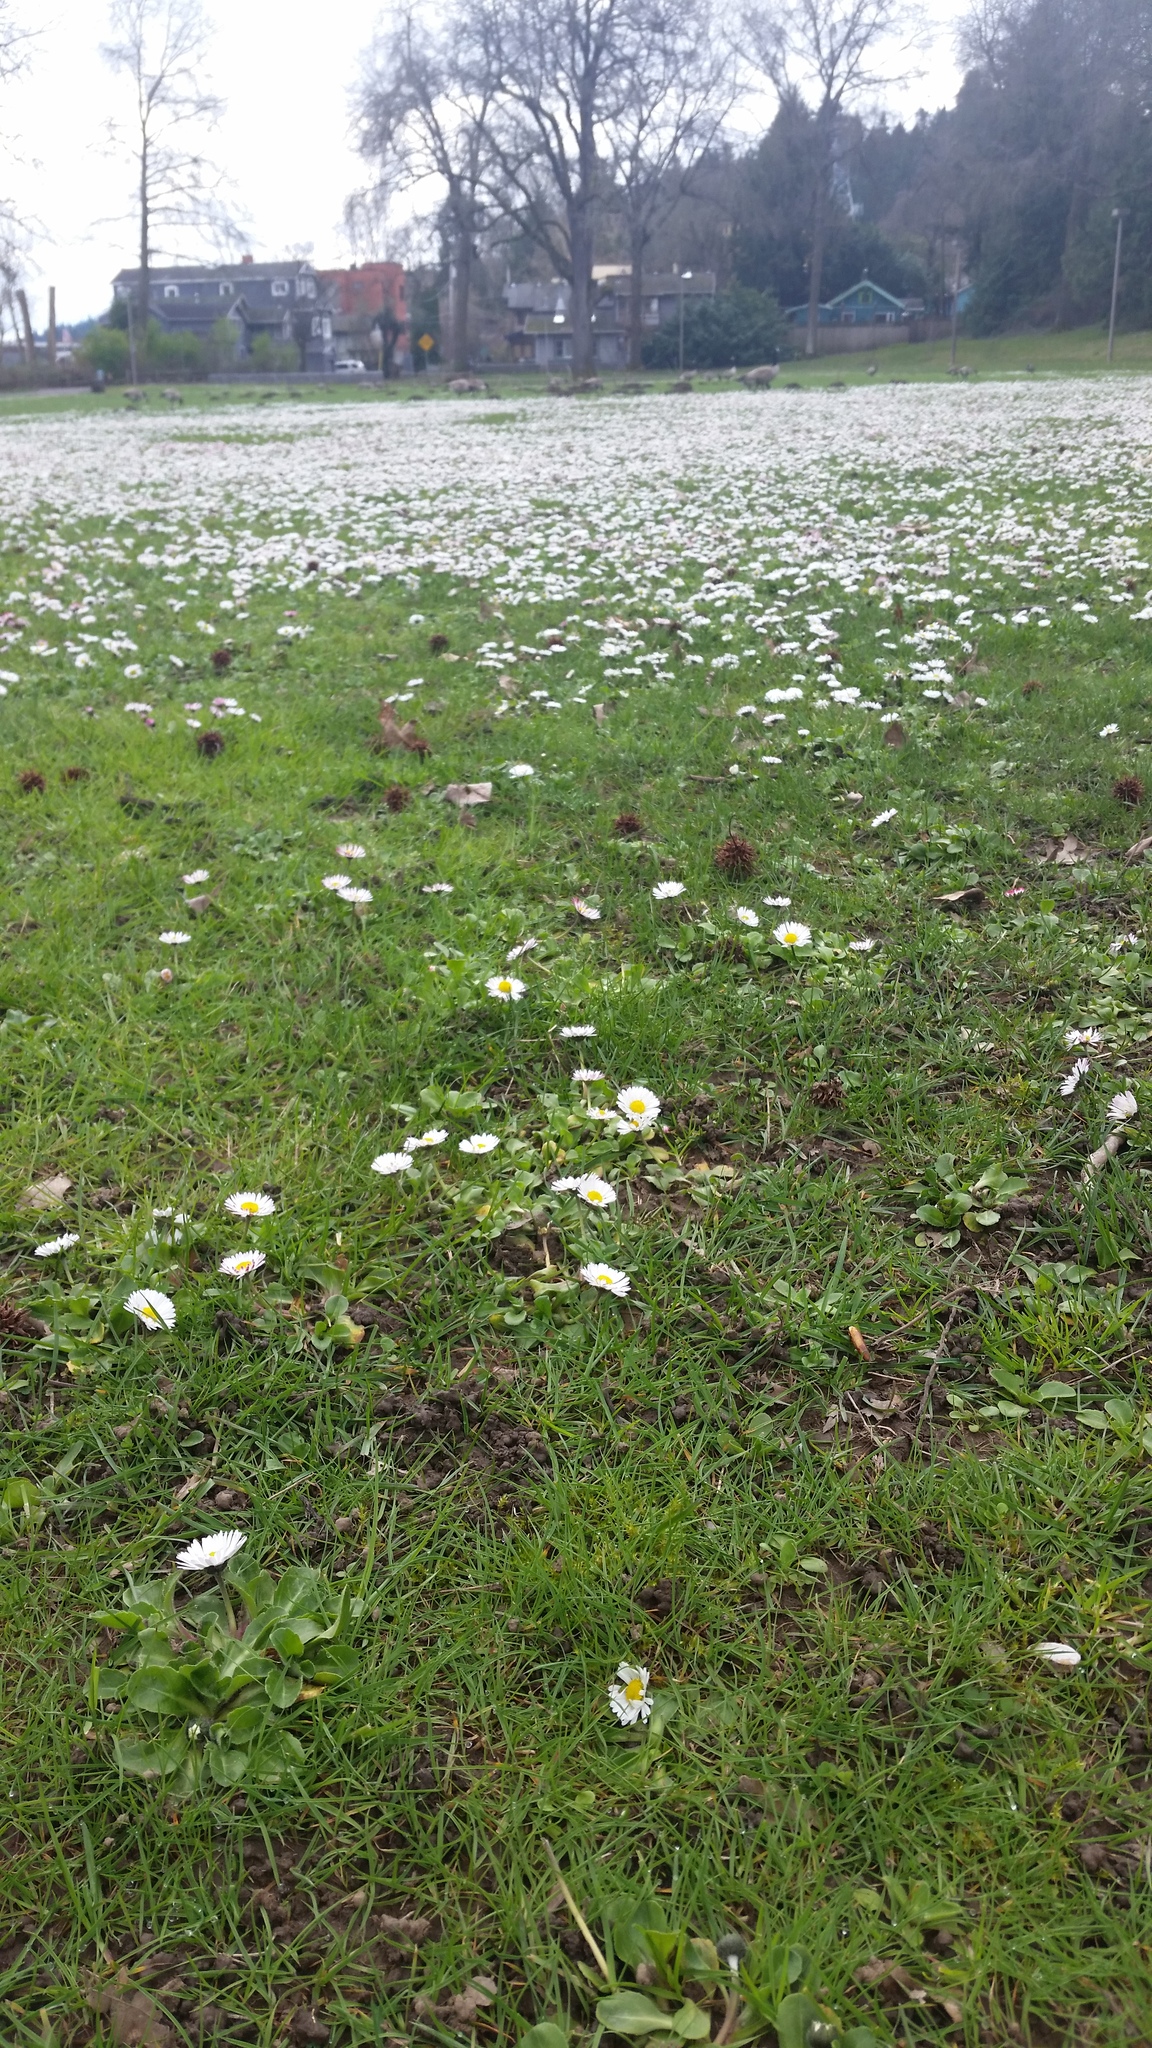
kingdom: Plantae
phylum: Tracheophyta
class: Magnoliopsida
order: Asterales
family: Asteraceae
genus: Bellis
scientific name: Bellis perennis
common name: Lawndaisy
